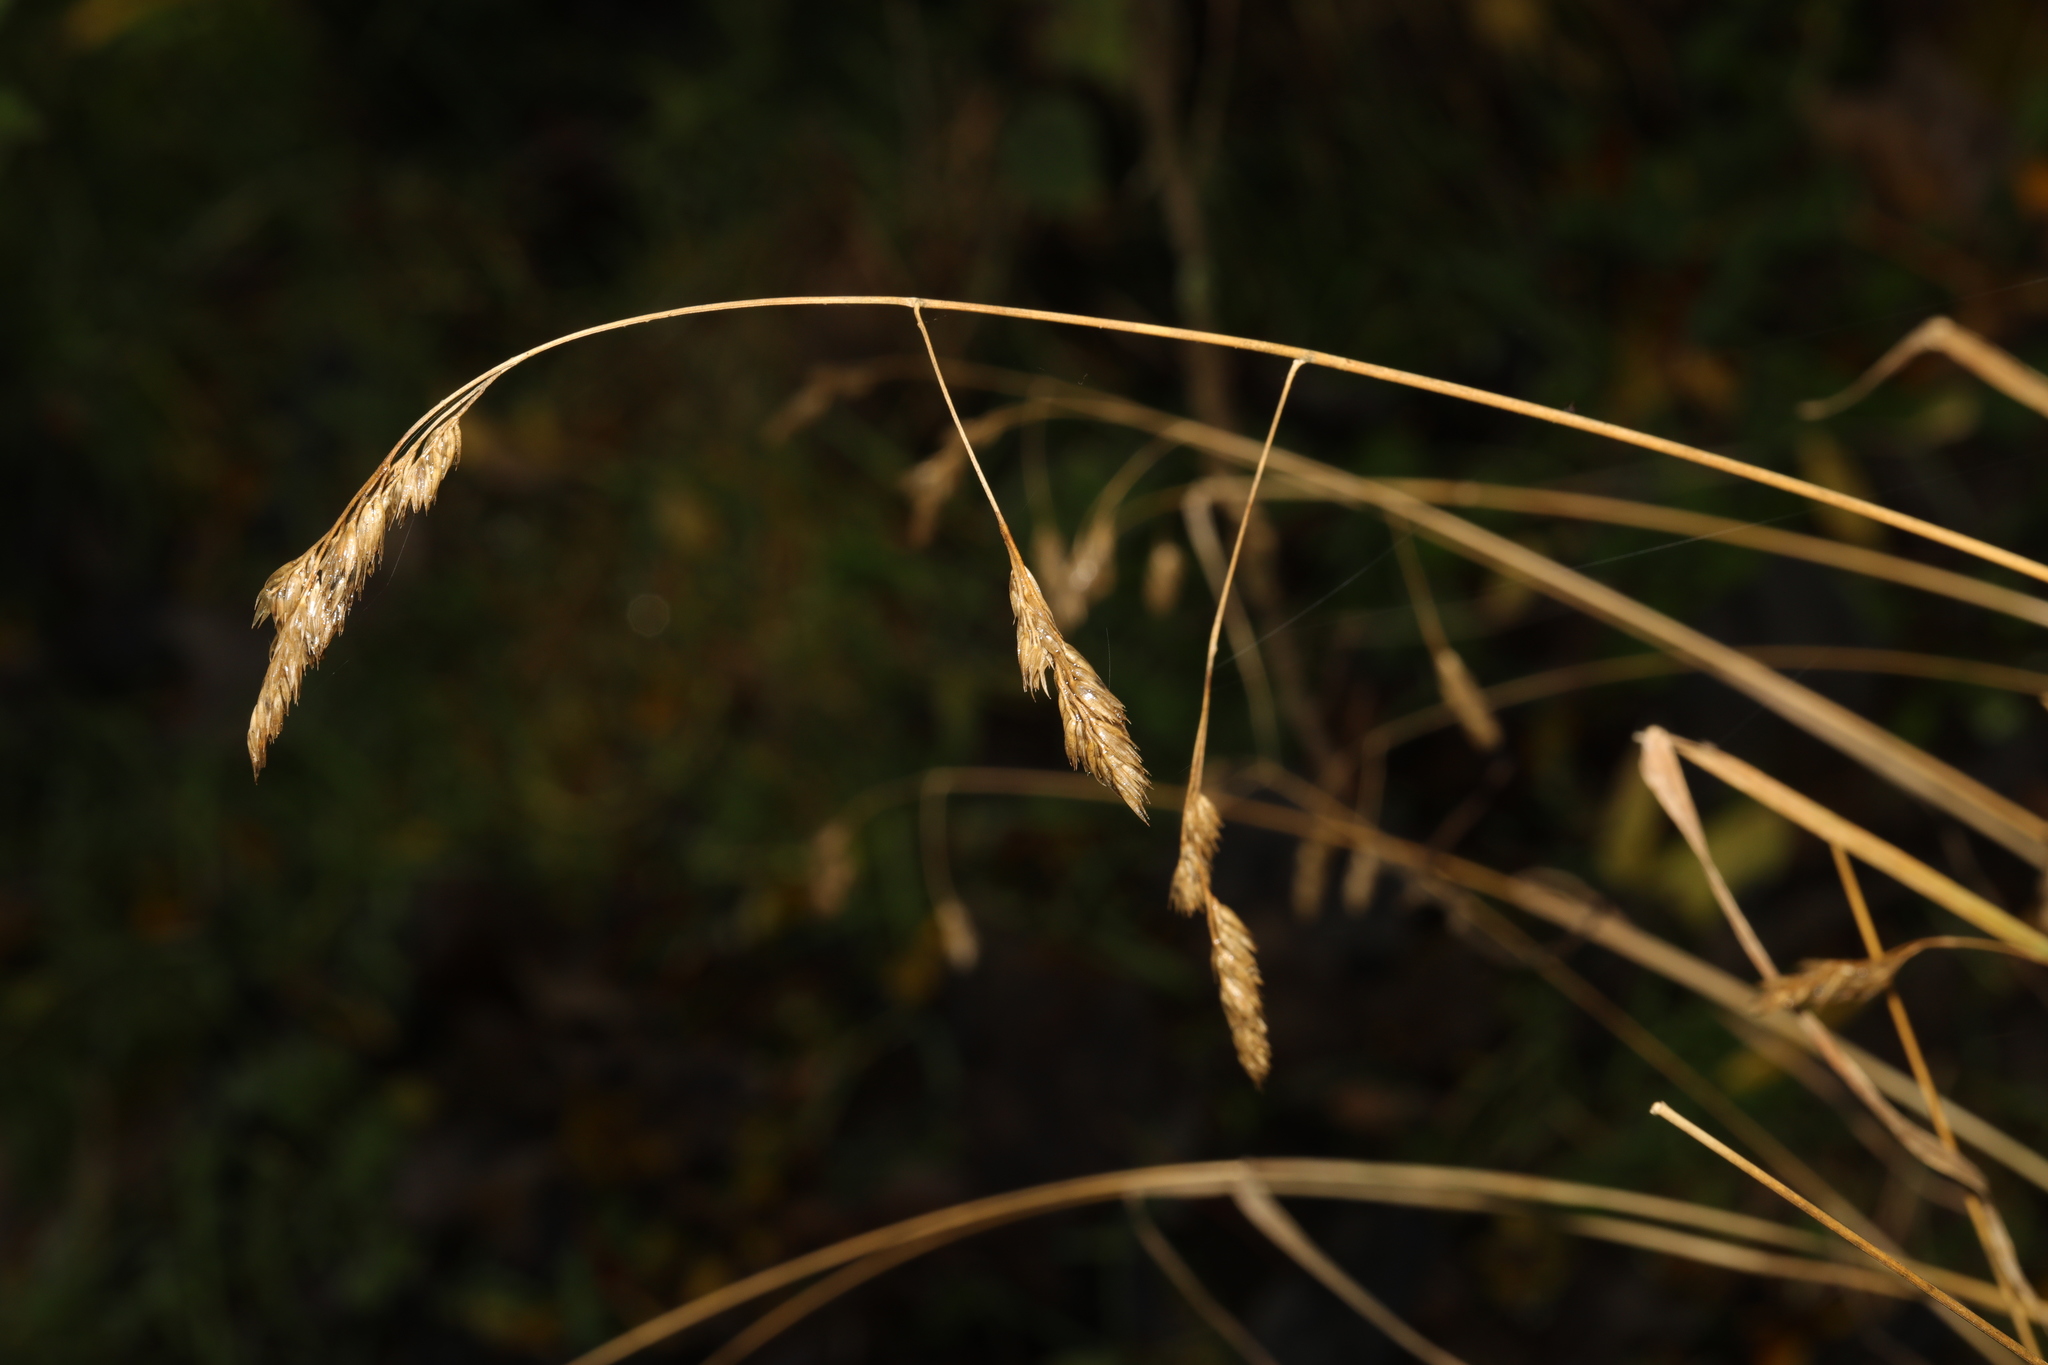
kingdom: Plantae
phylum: Tracheophyta
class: Liliopsida
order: Poales
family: Poaceae
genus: Dactylis
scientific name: Dactylis glomerata
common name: Orchardgrass
